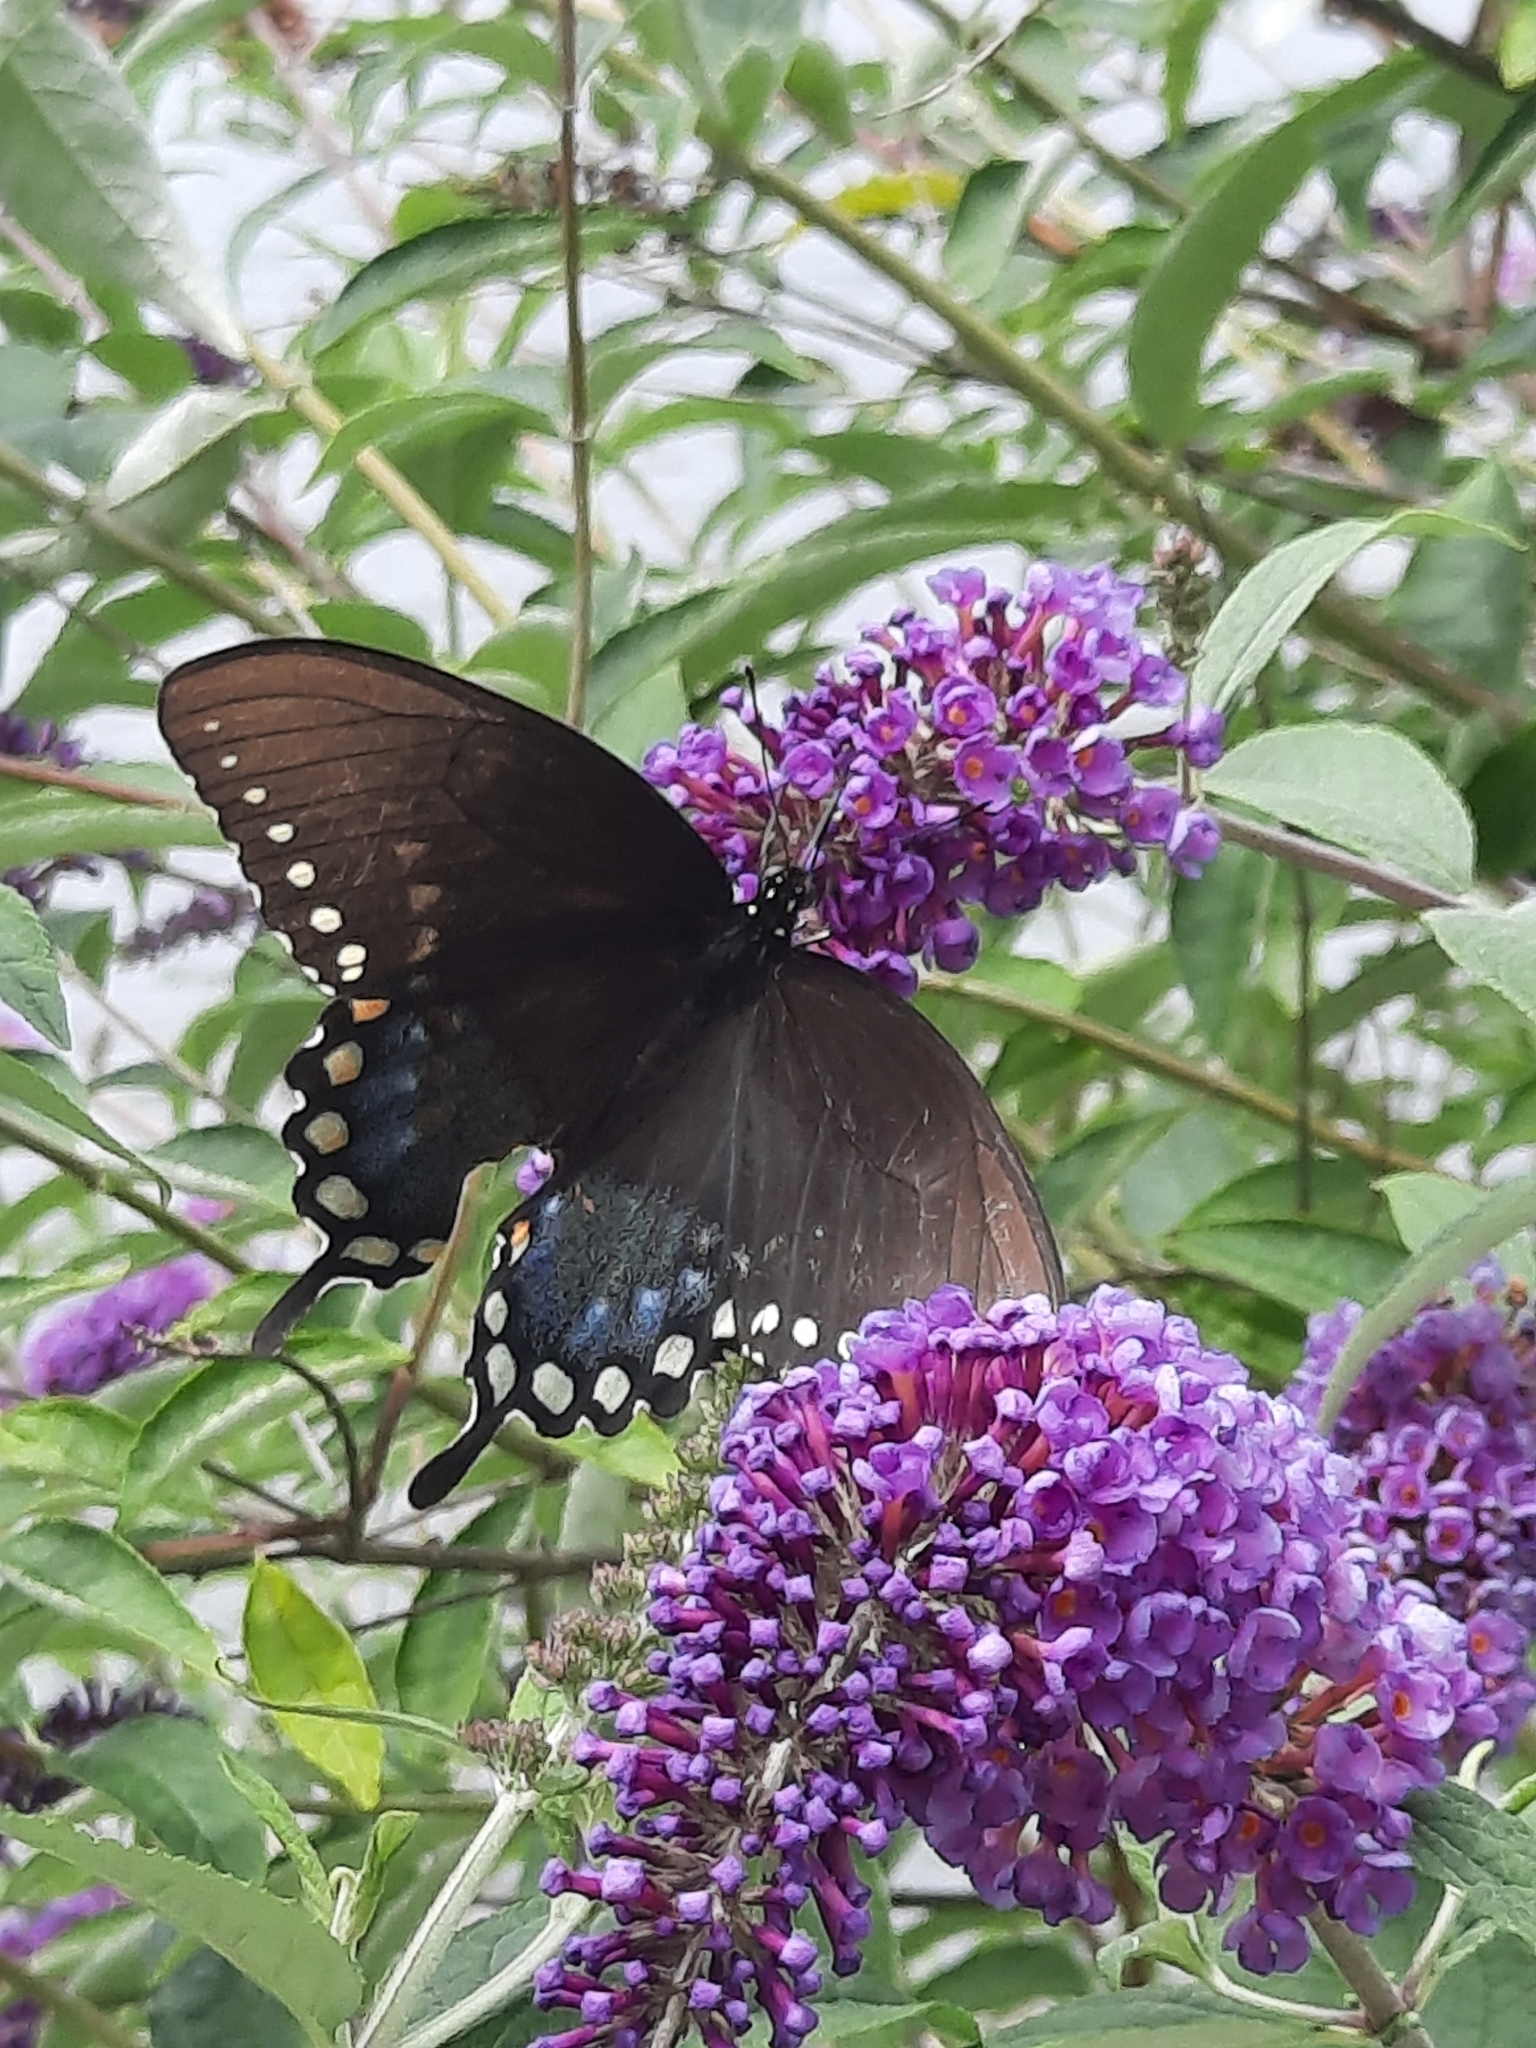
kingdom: Animalia
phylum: Arthropoda
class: Insecta
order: Lepidoptera
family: Papilionidae
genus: Papilio
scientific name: Papilio troilus
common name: Spicebush swallowtail
